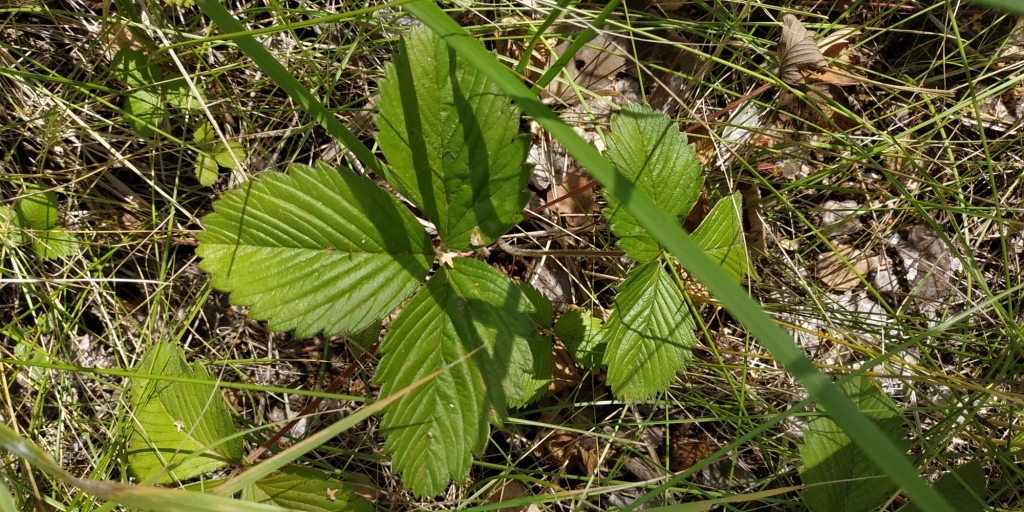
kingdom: Plantae
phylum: Tracheophyta
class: Magnoliopsida
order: Rosales
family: Rosaceae
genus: Fragaria
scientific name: Fragaria viridis
